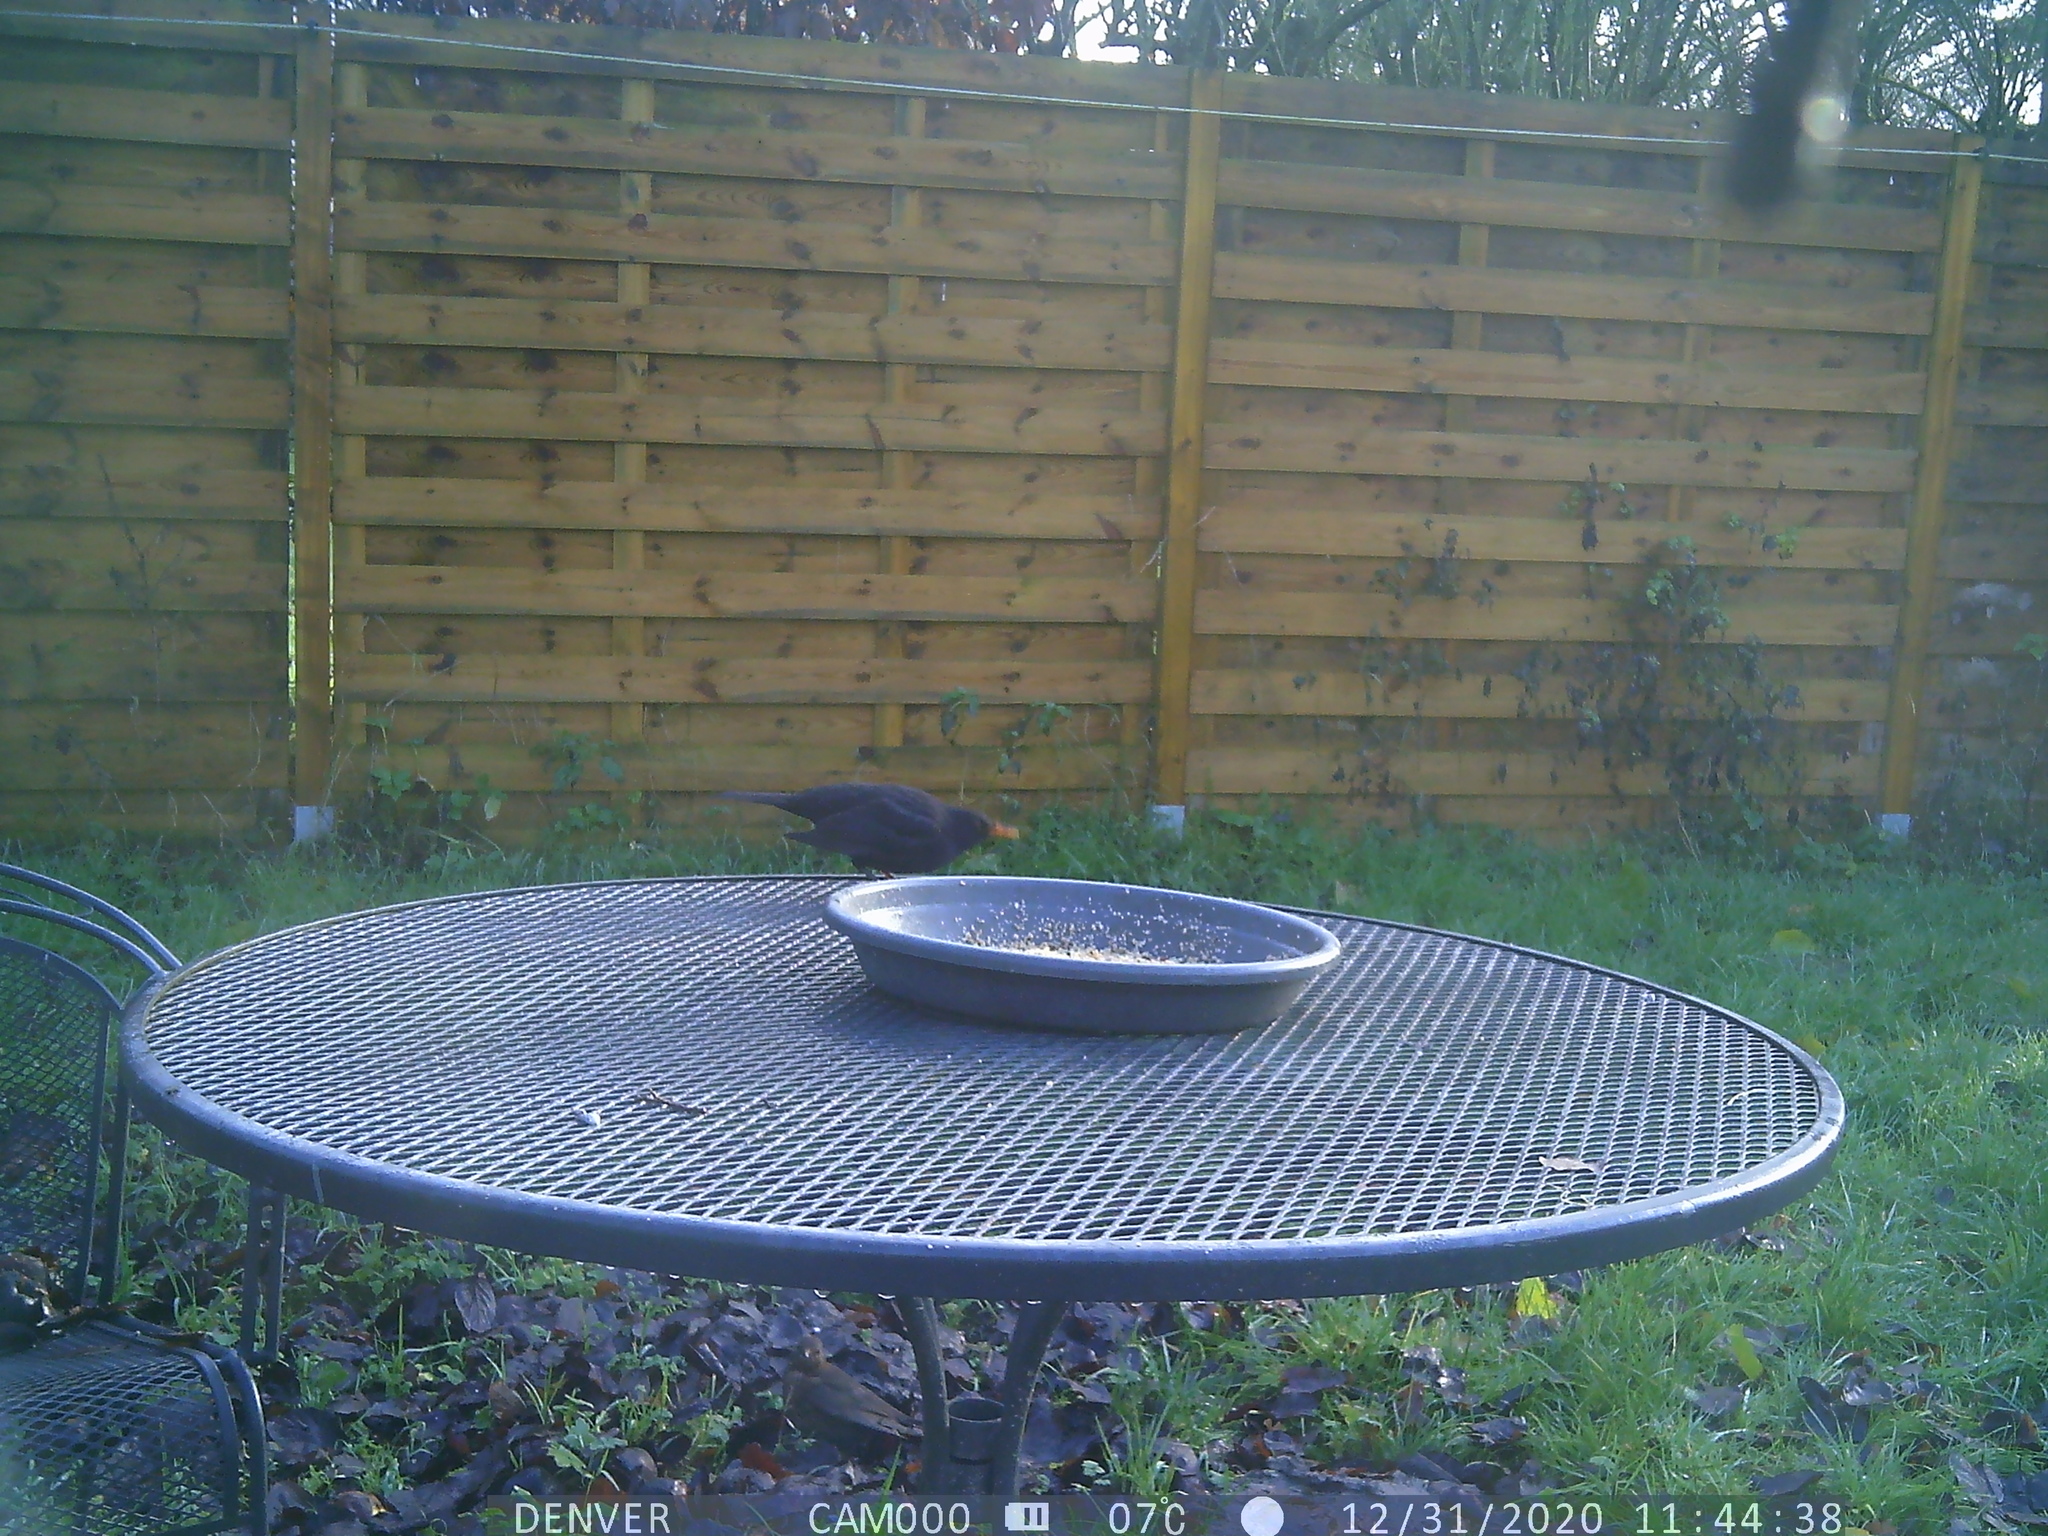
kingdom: Animalia
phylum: Chordata
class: Aves
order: Passeriformes
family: Turdidae
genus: Turdus
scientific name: Turdus merula
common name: Common blackbird
